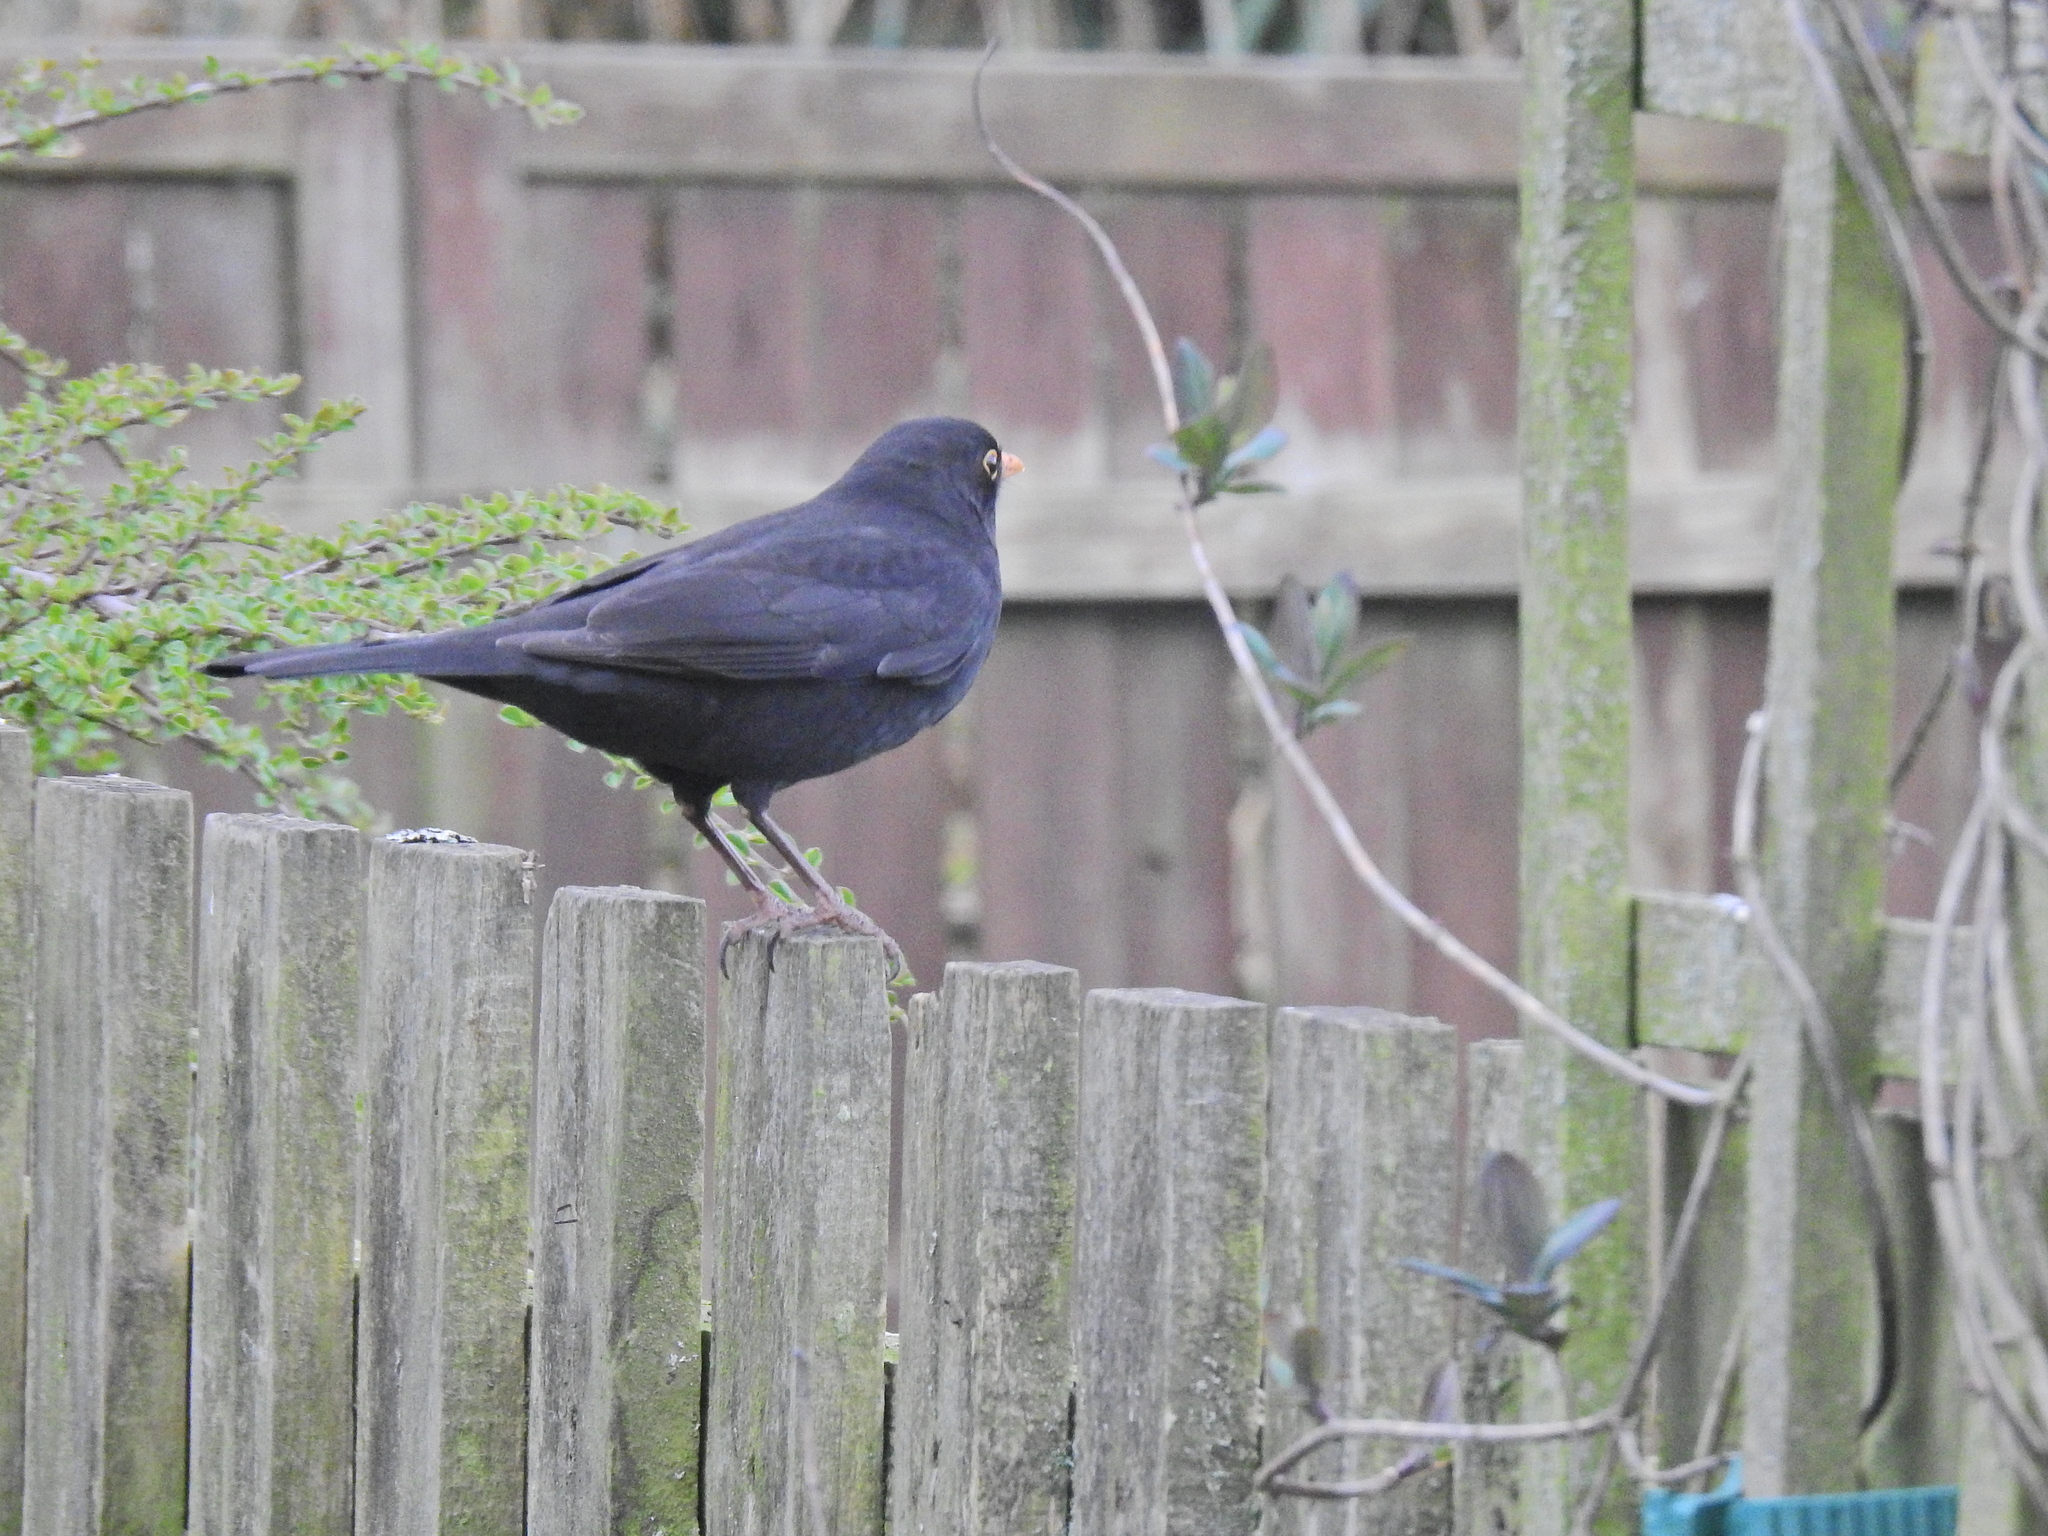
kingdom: Animalia
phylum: Chordata
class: Aves
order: Passeriformes
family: Turdidae
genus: Turdus
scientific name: Turdus merula
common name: Common blackbird
